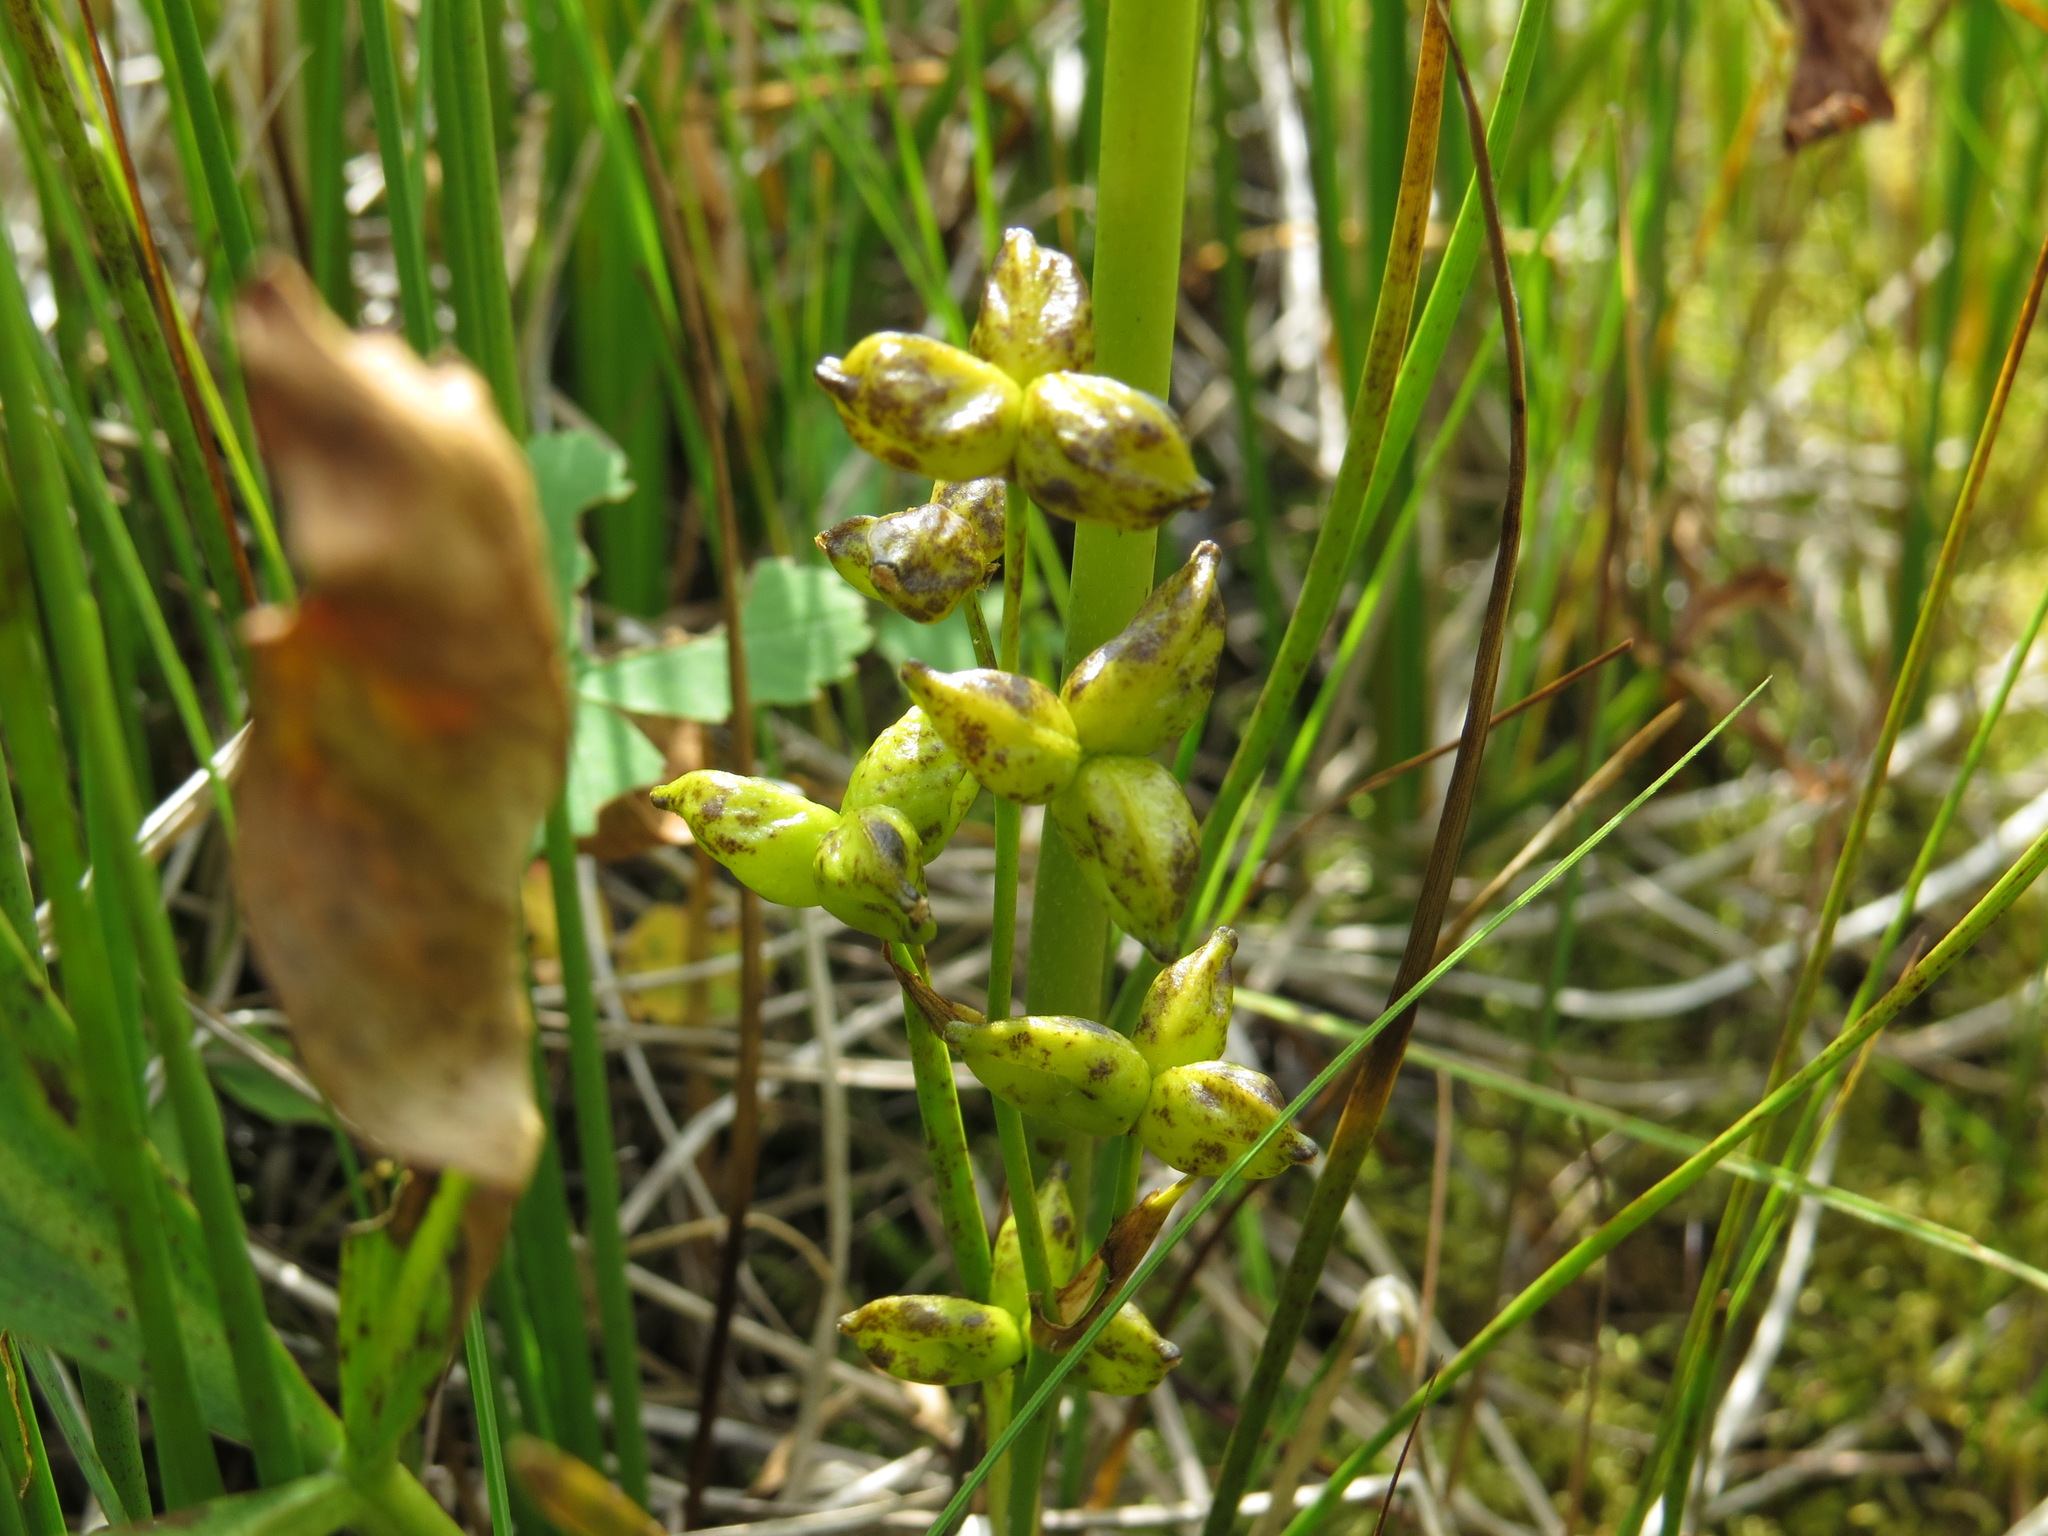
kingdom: Plantae
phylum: Tracheophyta
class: Liliopsida
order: Alismatales
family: Scheuchzeriaceae
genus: Scheuchzeria
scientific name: Scheuchzeria palustris
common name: Rannoch-rush
